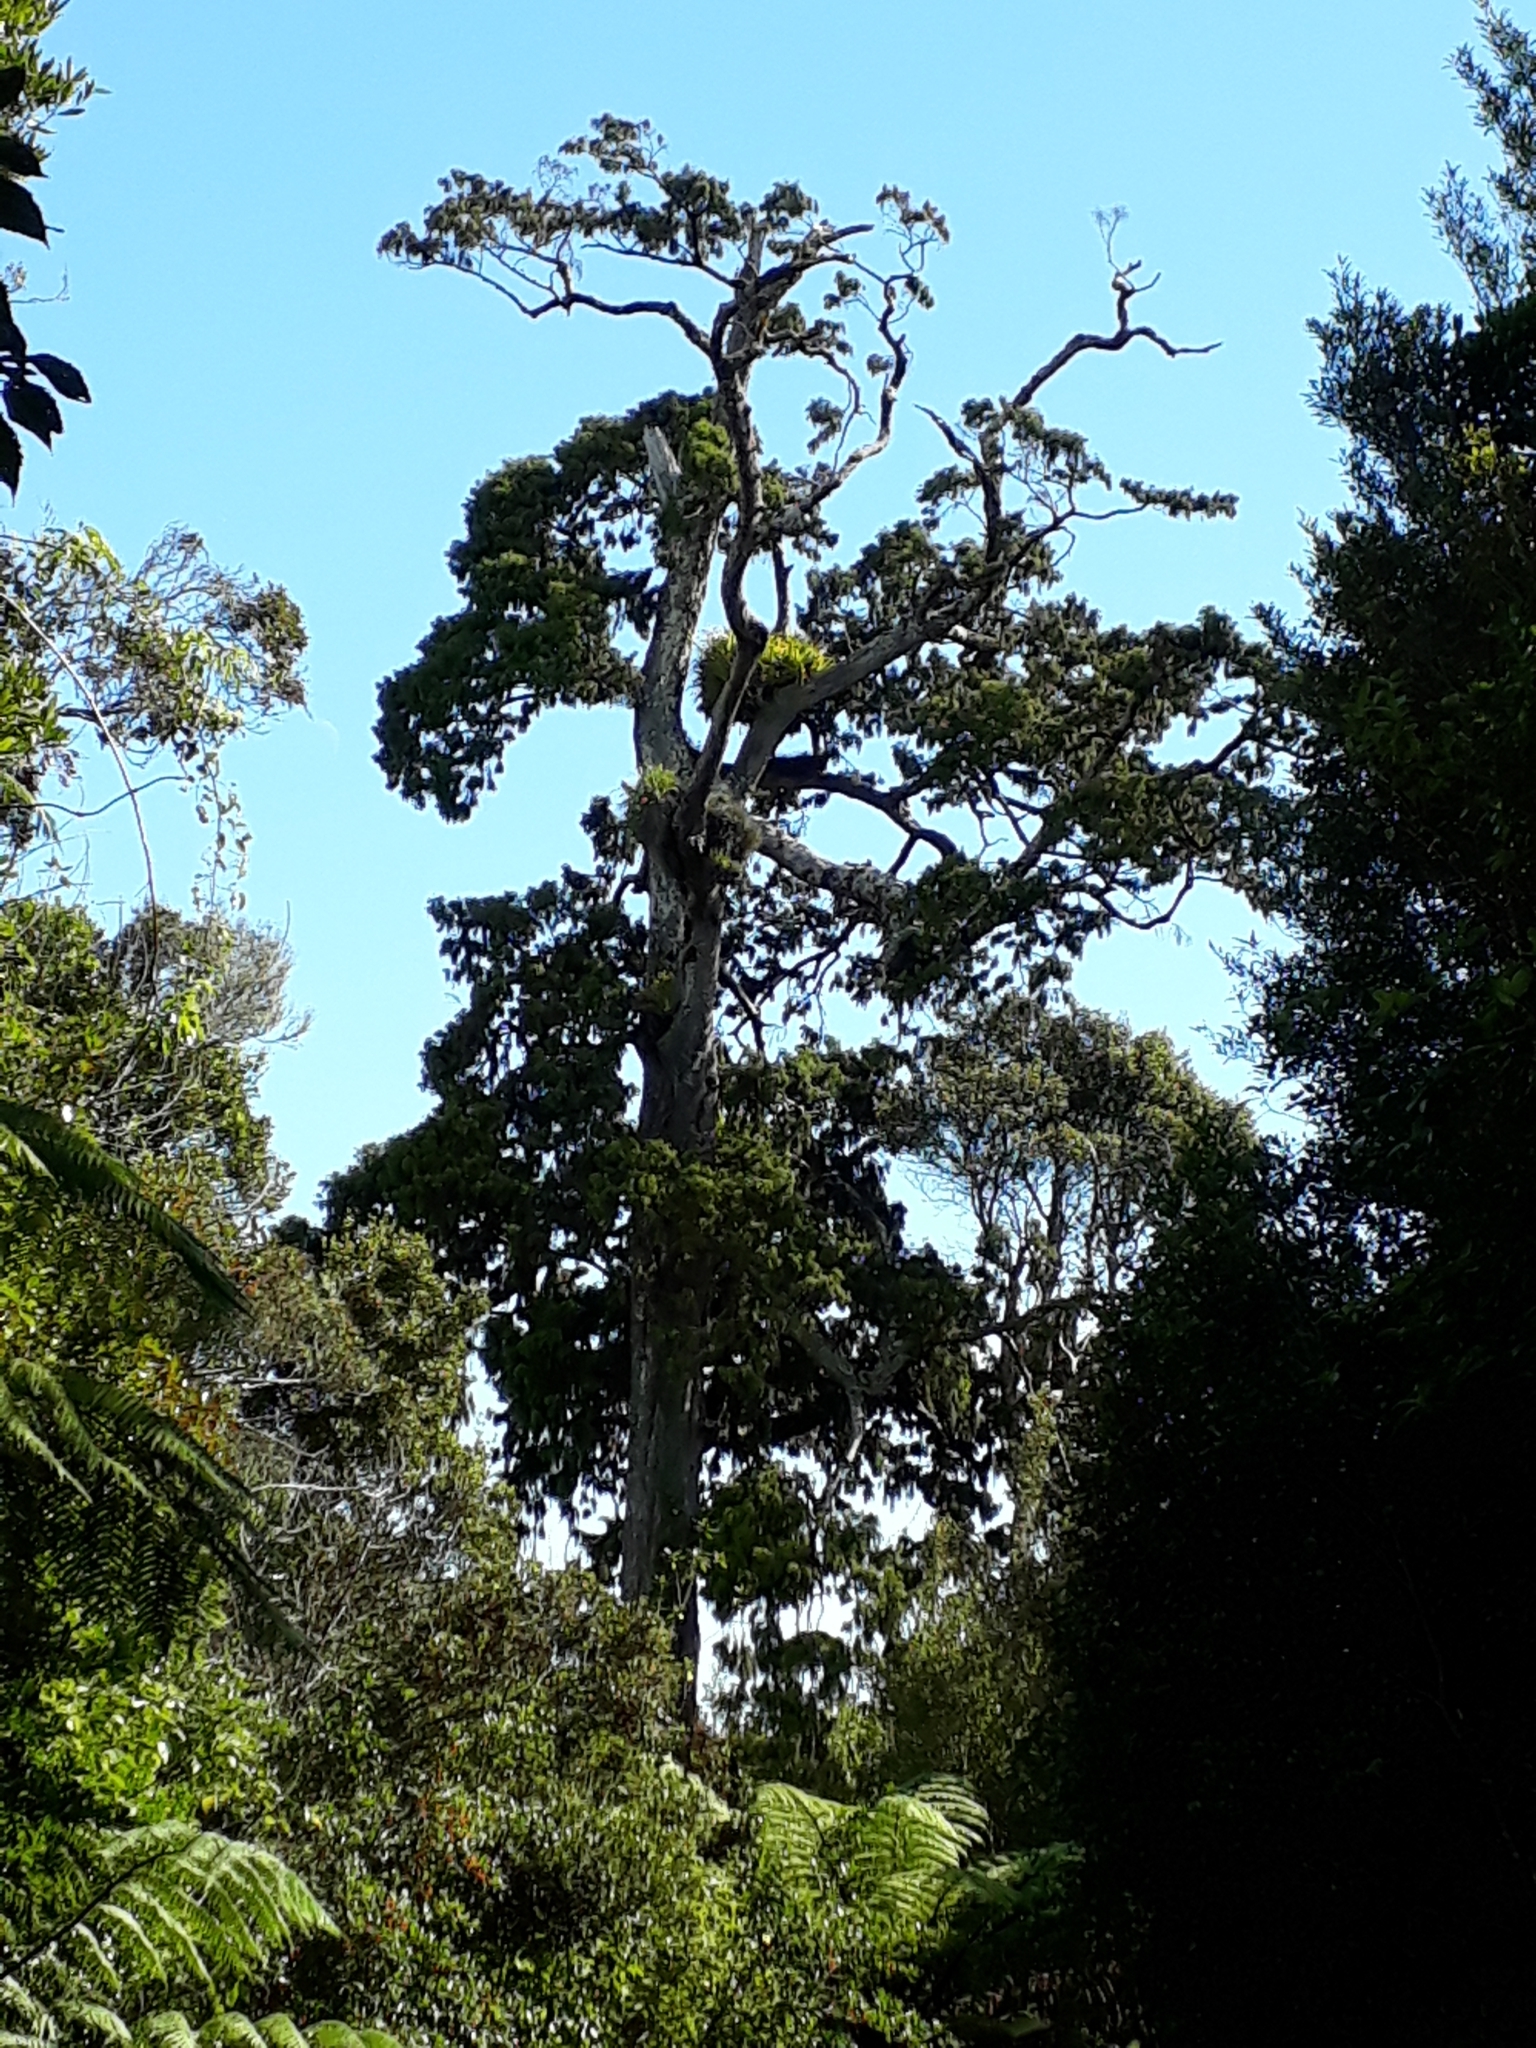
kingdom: Plantae
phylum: Tracheophyta
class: Pinopsida
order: Pinales
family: Podocarpaceae
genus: Dacrydium
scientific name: Dacrydium cupressinum
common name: Red pine
